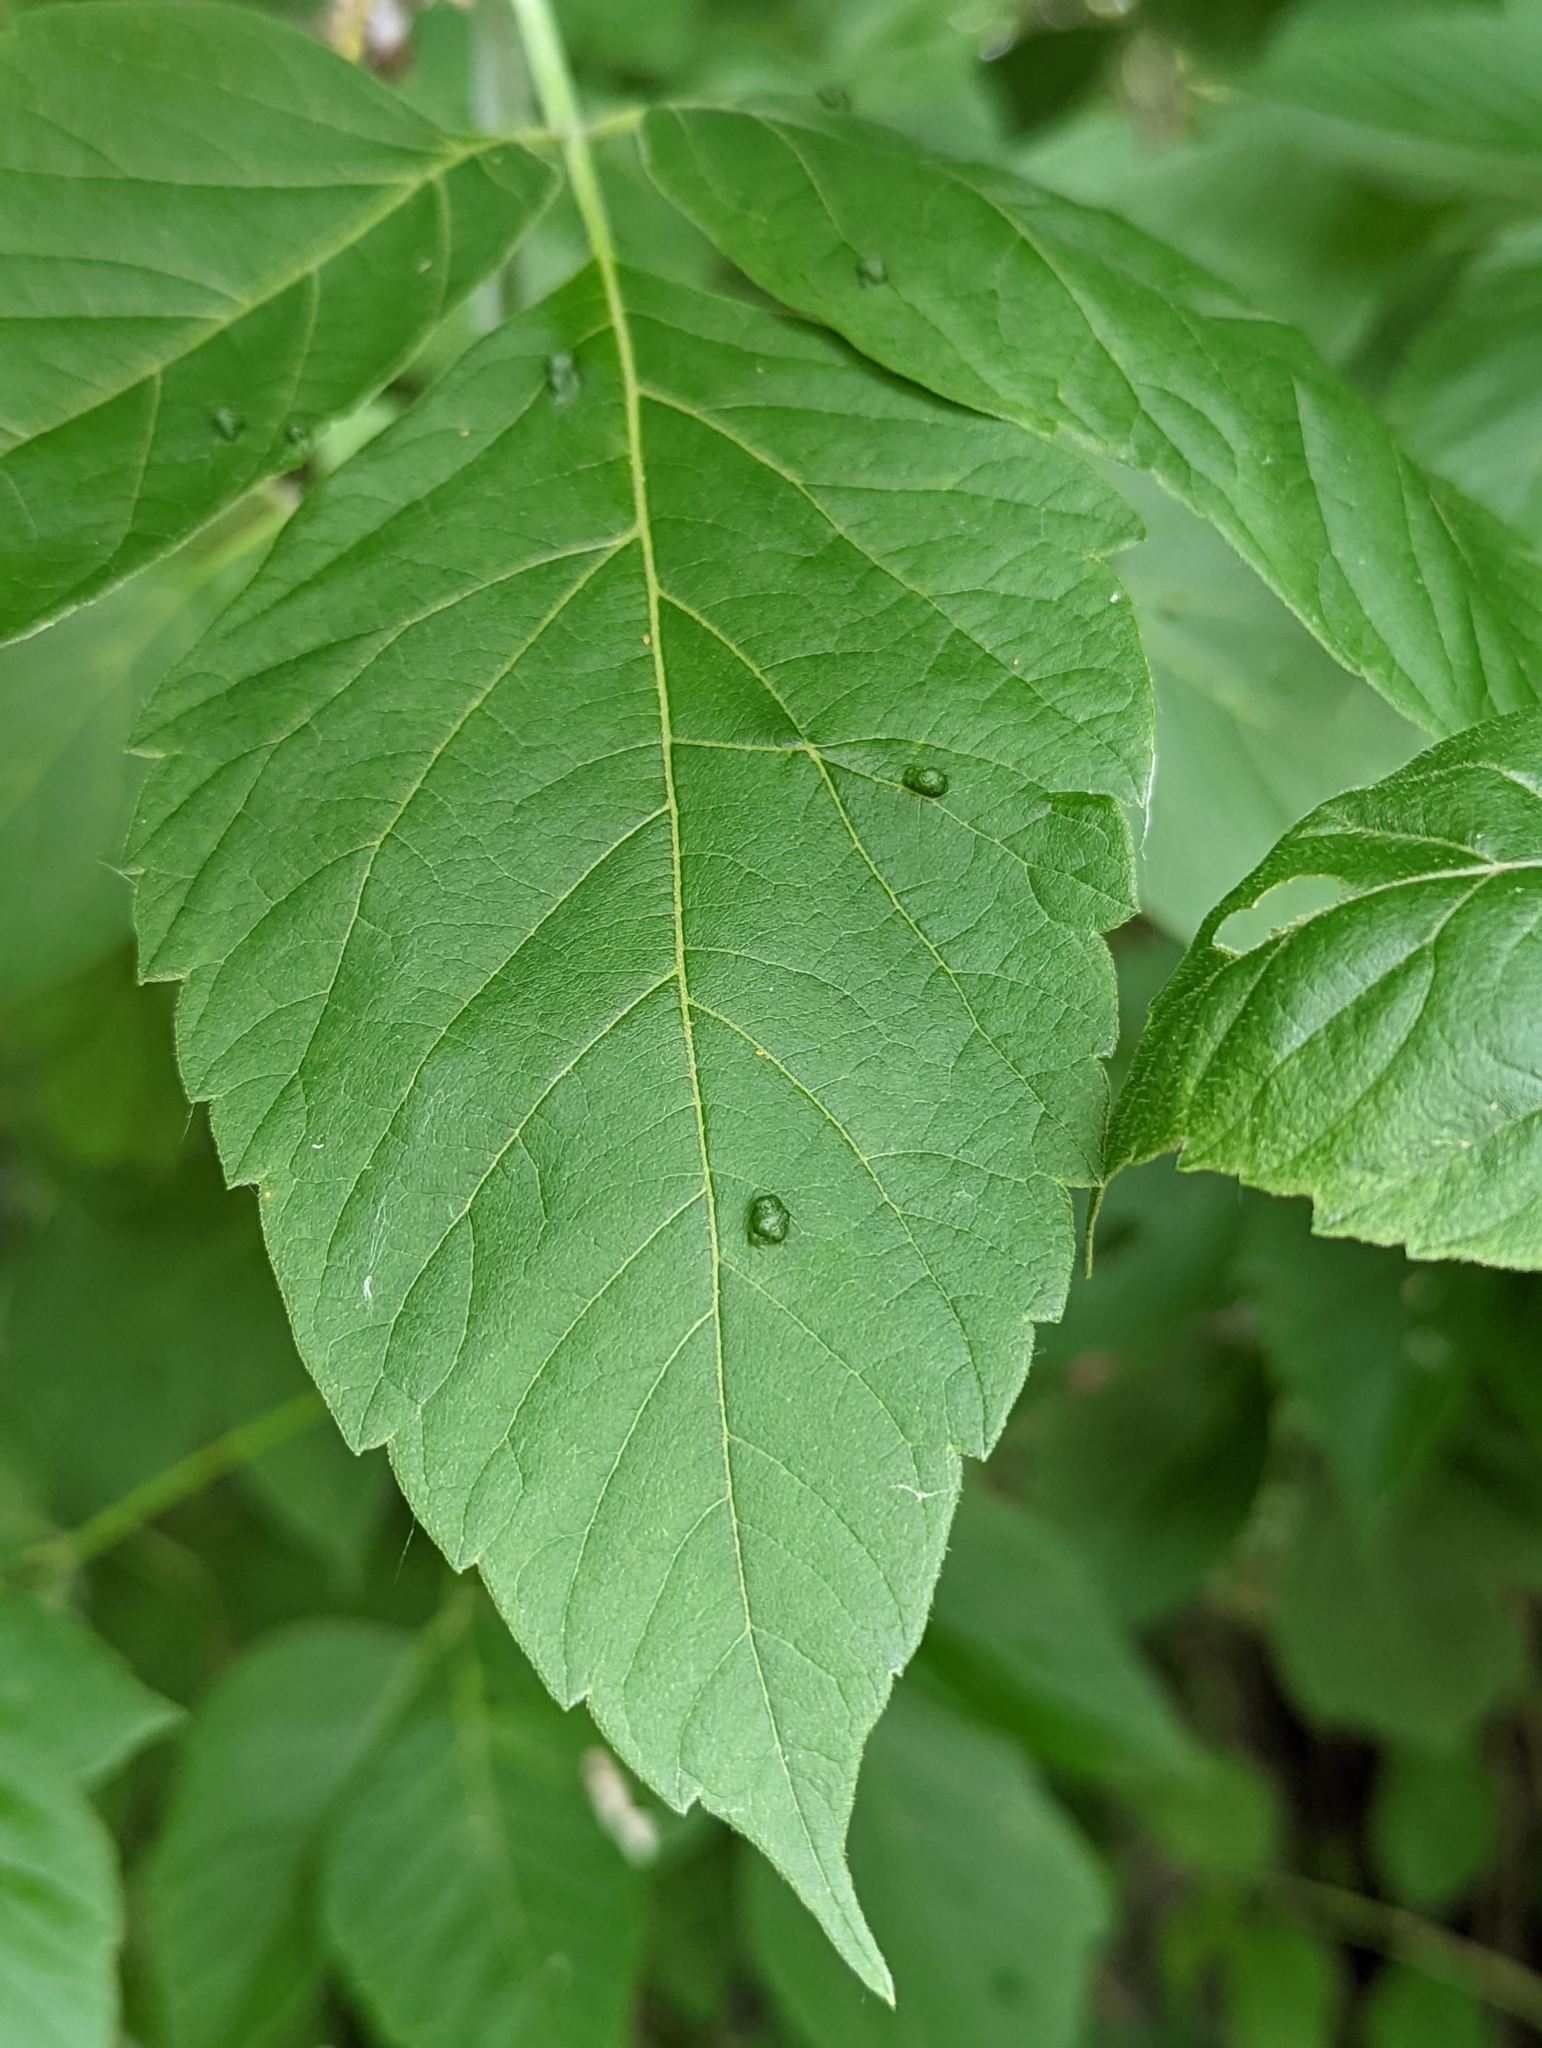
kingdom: Animalia
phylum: Arthropoda
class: Arachnida
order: Trombidiformes
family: Eriophyidae
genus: Aceria
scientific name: Aceria
